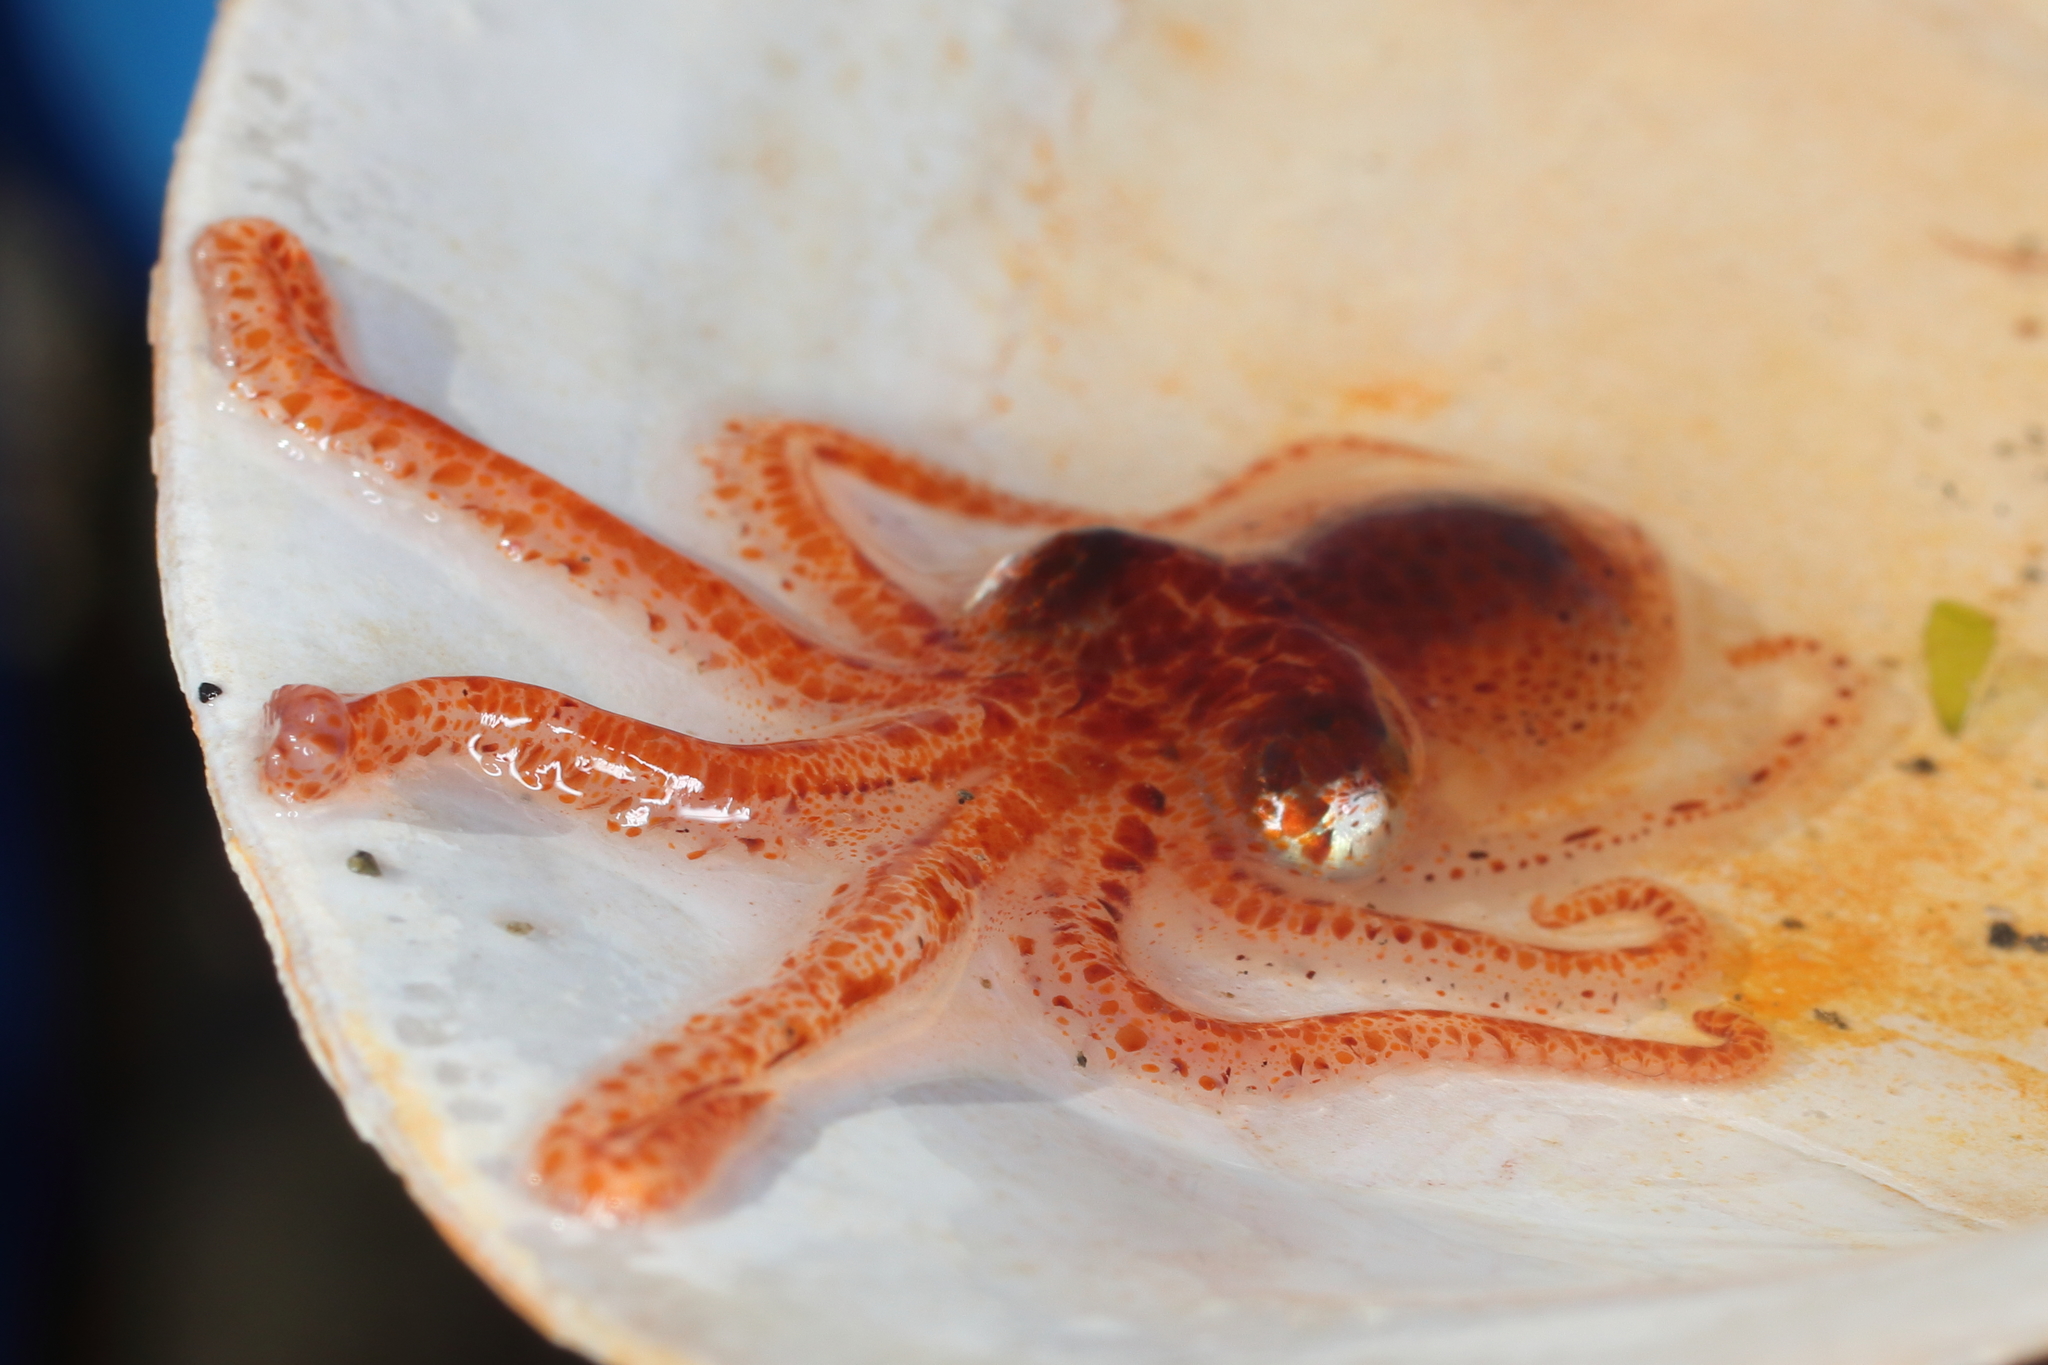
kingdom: Animalia
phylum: Mollusca
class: Cephalopoda
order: Octopoda
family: Enteroctopodidae
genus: Enteroctopus
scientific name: Enteroctopus dofleini
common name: Giant north pacific octopus
